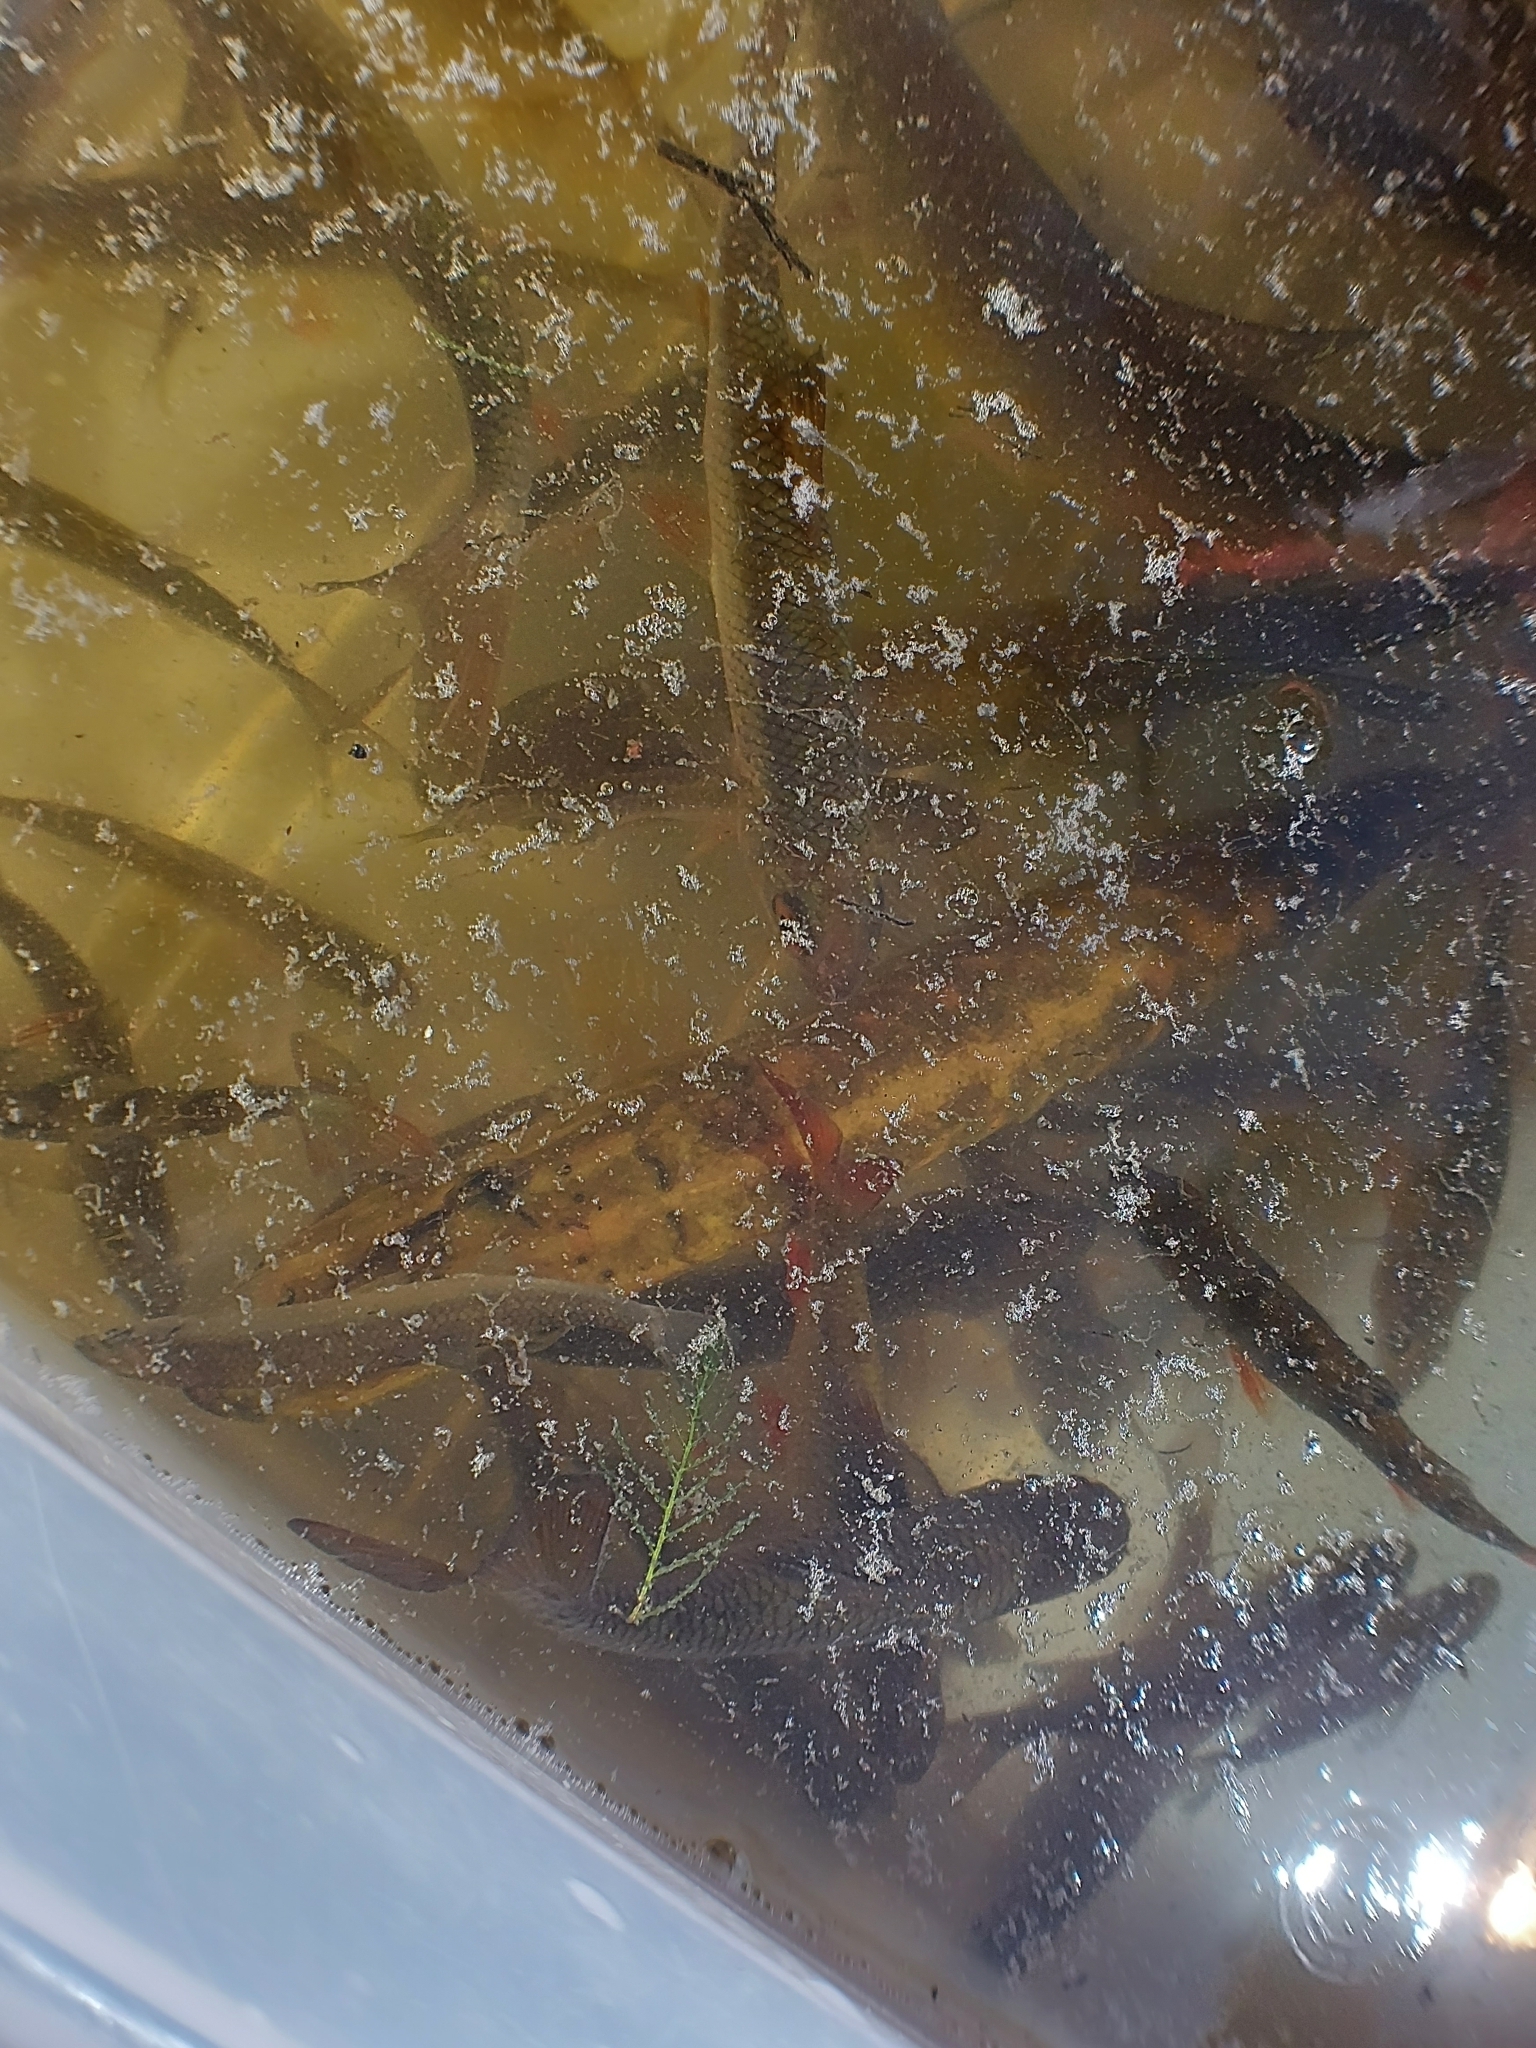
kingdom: Animalia
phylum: Chordata
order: Esociformes
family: Esocidae
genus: Esox
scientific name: Esox lucius
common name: Northern pike
